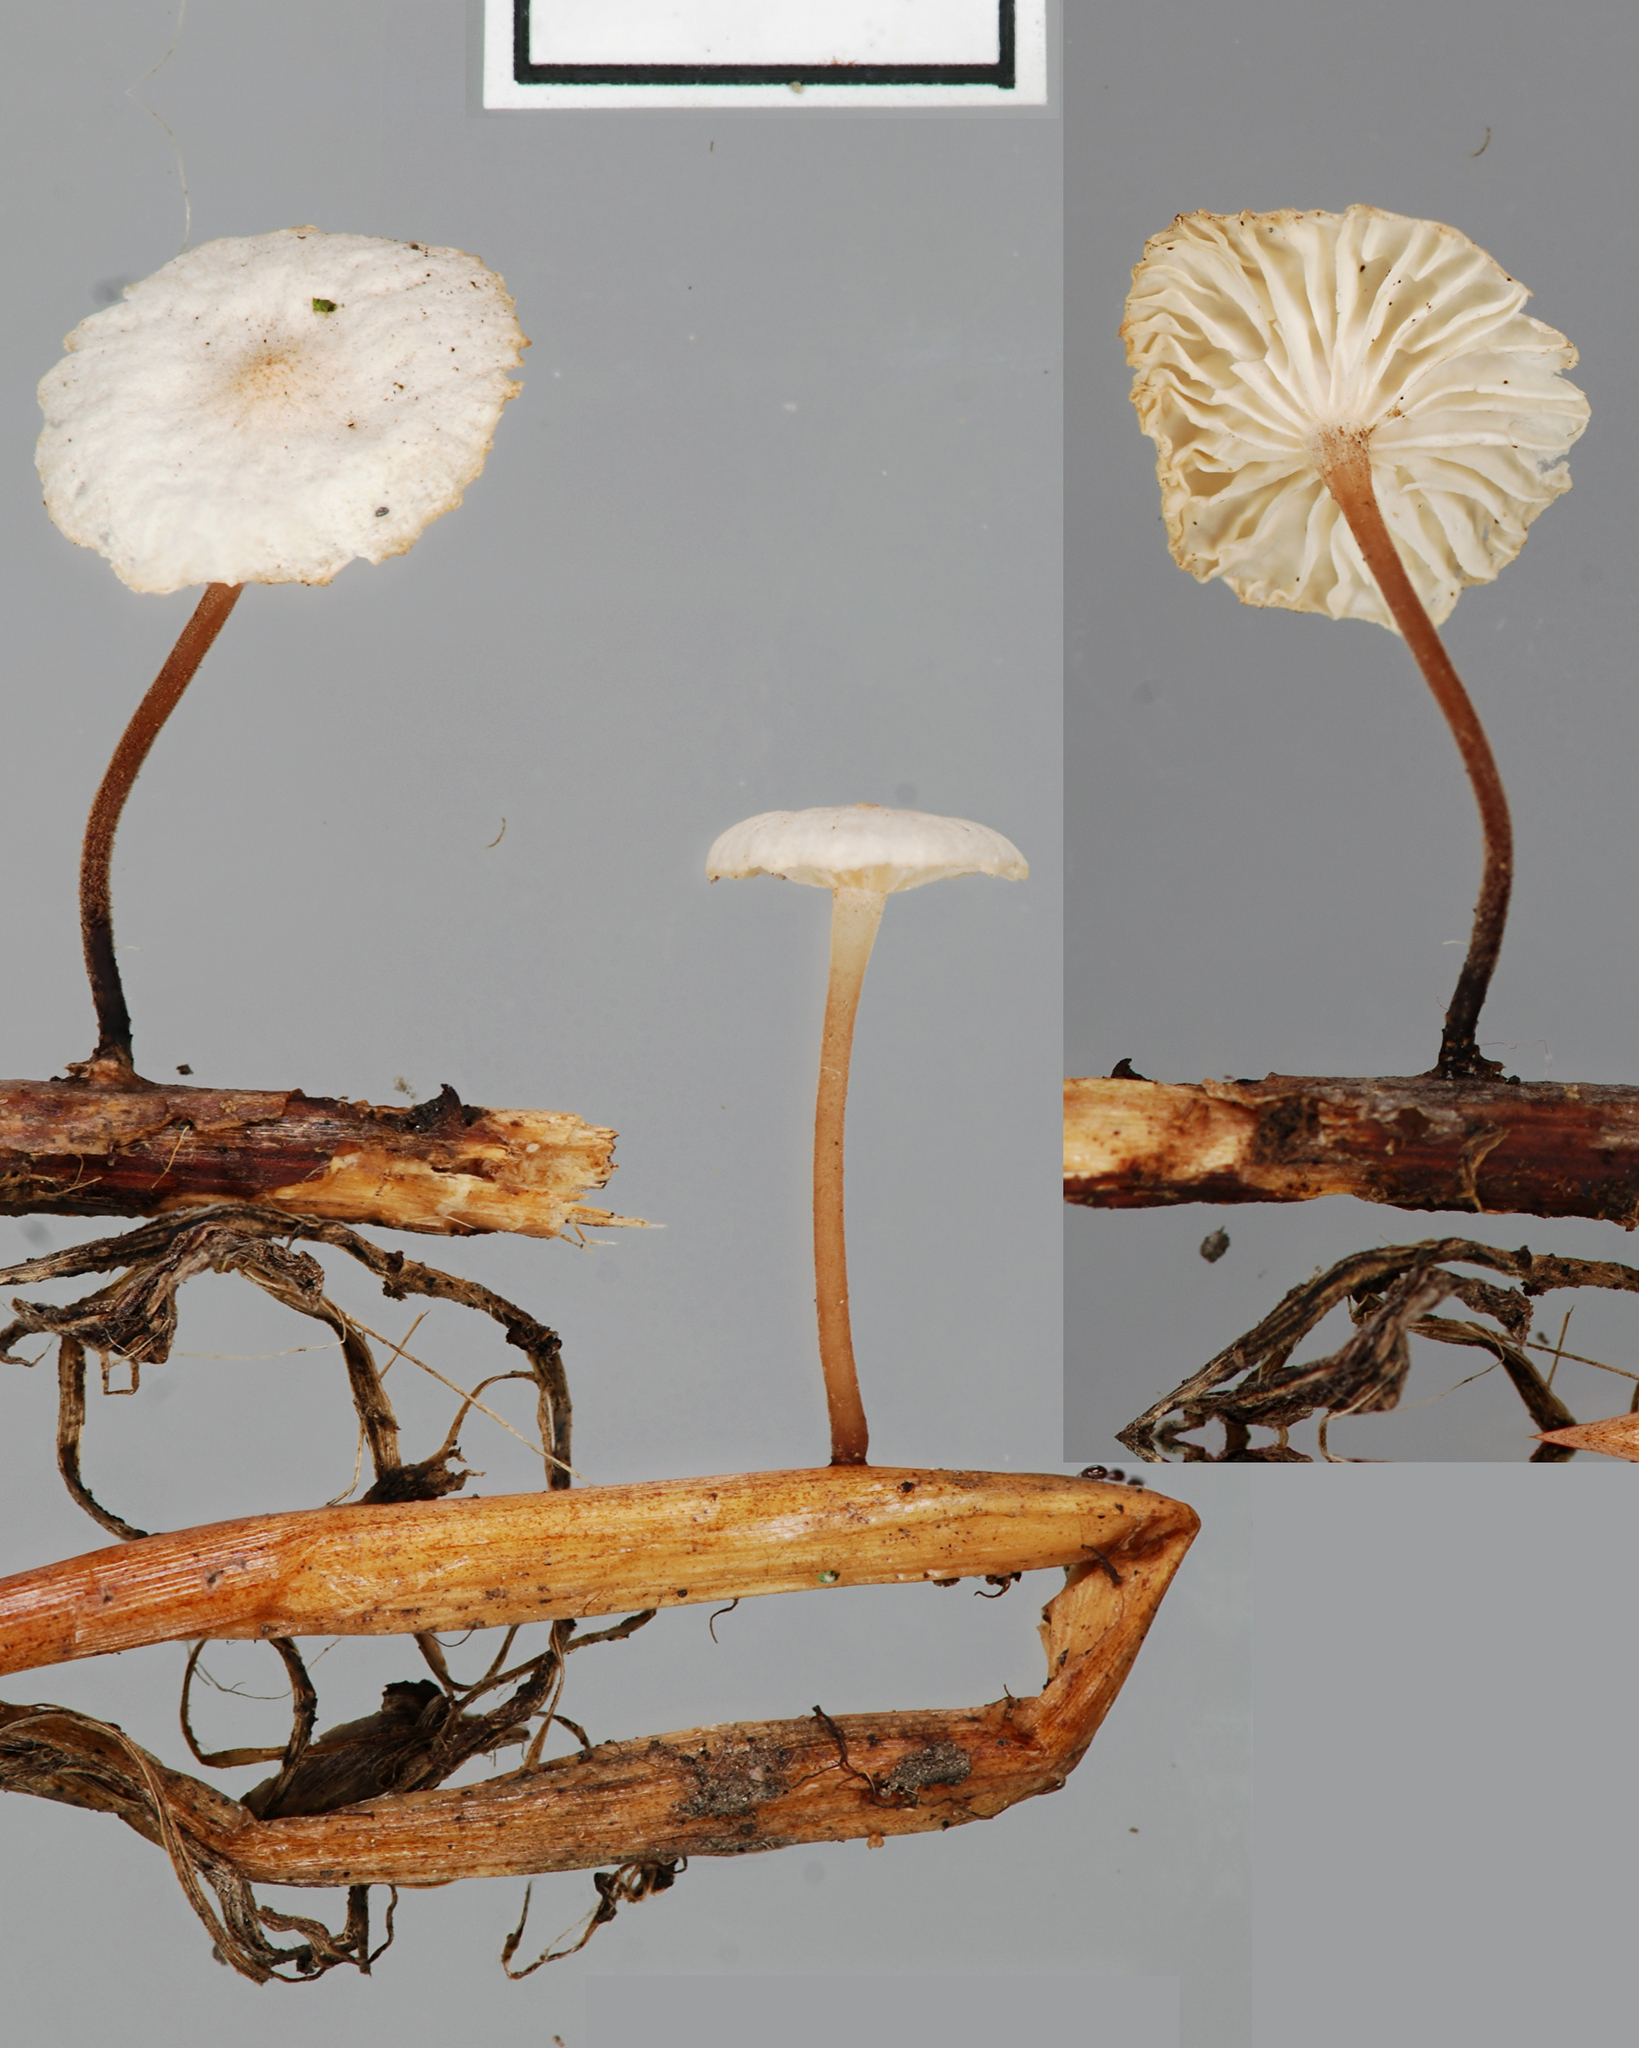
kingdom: Fungi
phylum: Basidiomycota
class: Agaricomycetes
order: Agaricales
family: Omphalotaceae
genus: Collybiopsis
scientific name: Collybiopsis vaillantii
